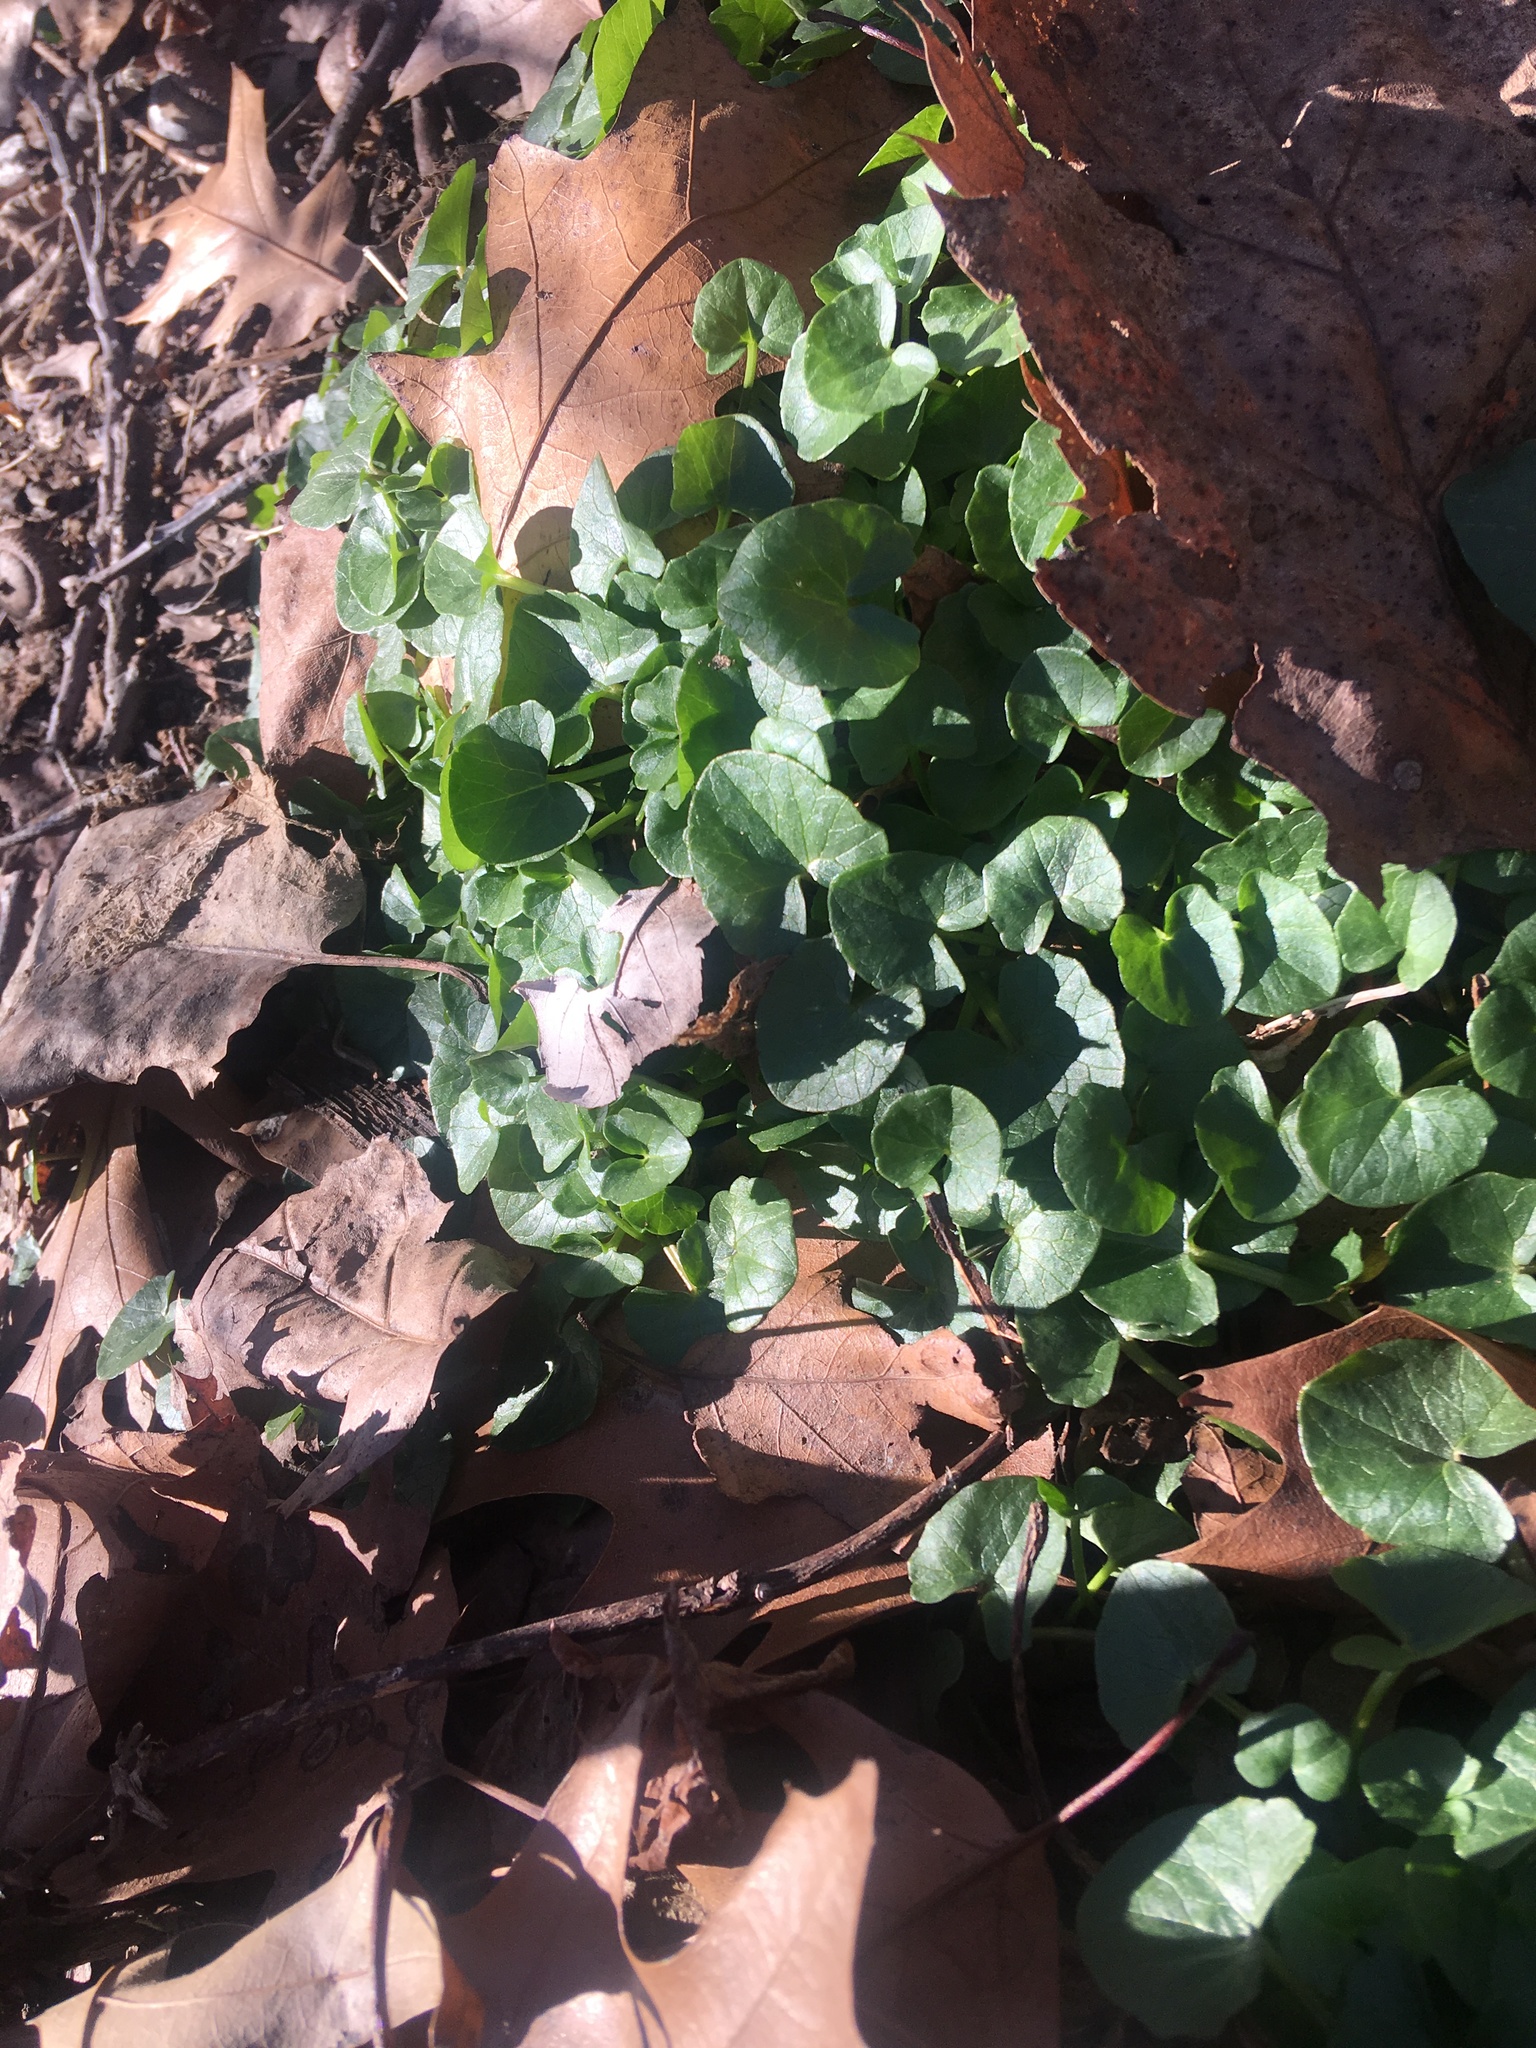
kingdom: Plantae
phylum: Tracheophyta
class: Magnoliopsida
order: Ranunculales
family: Ranunculaceae
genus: Ficaria
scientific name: Ficaria verna
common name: Lesser celandine
